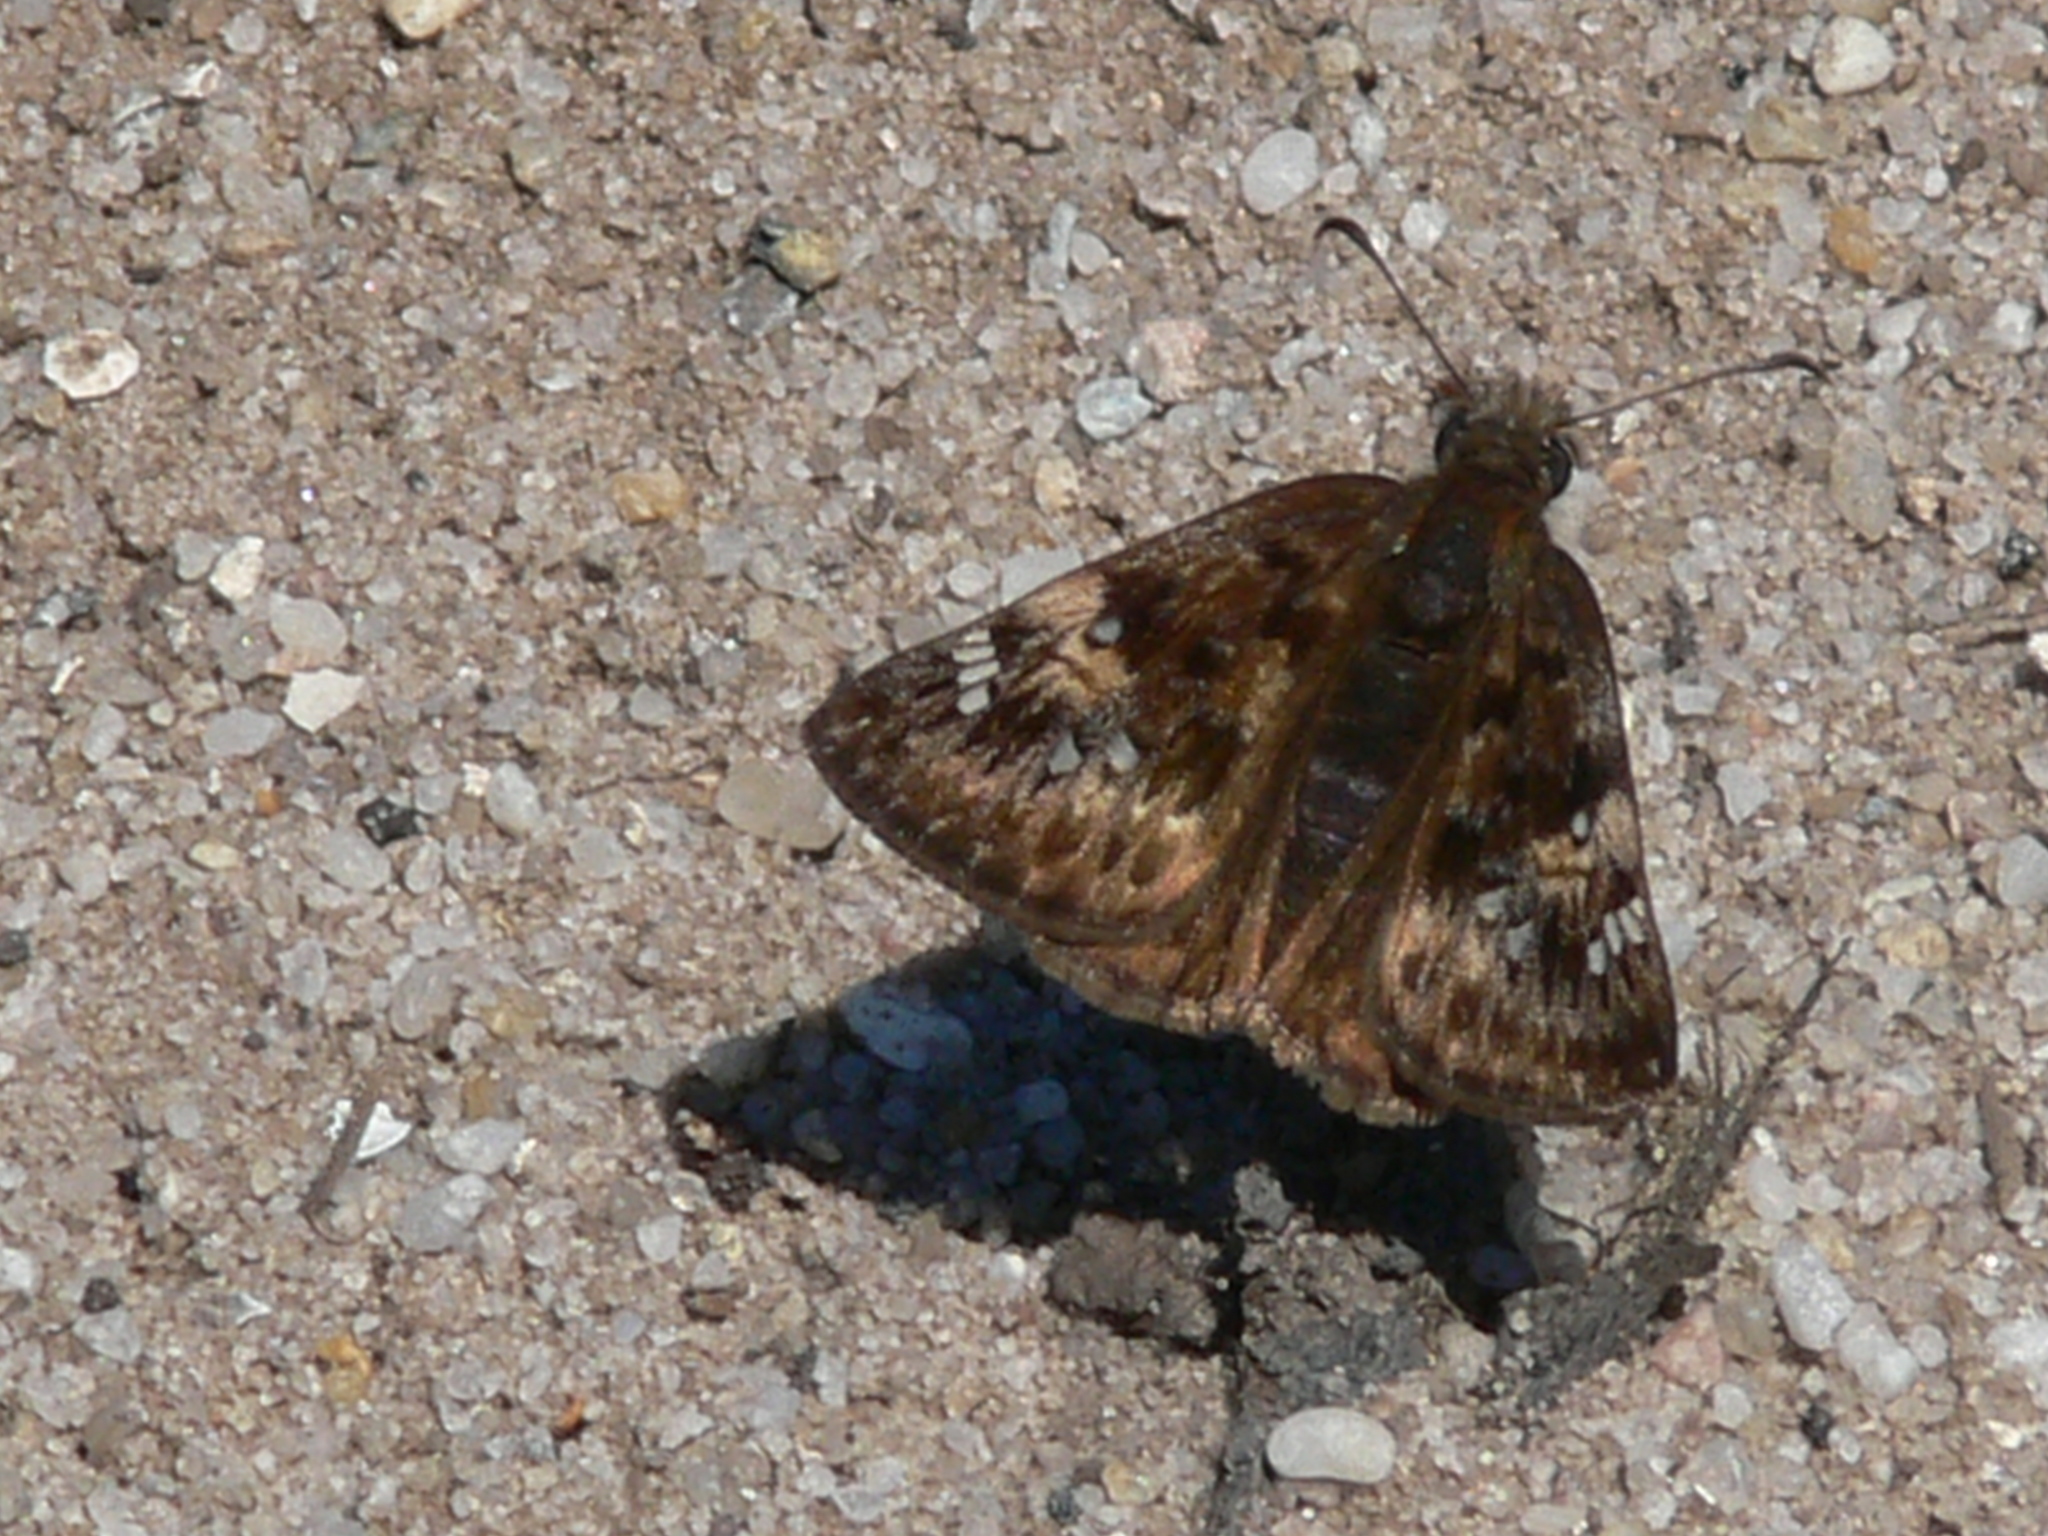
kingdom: Animalia
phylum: Arthropoda
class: Insecta
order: Lepidoptera
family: Hesperiidae
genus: Erynnis
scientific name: Erynnis juvenalis
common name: Juvenal's duskywing
